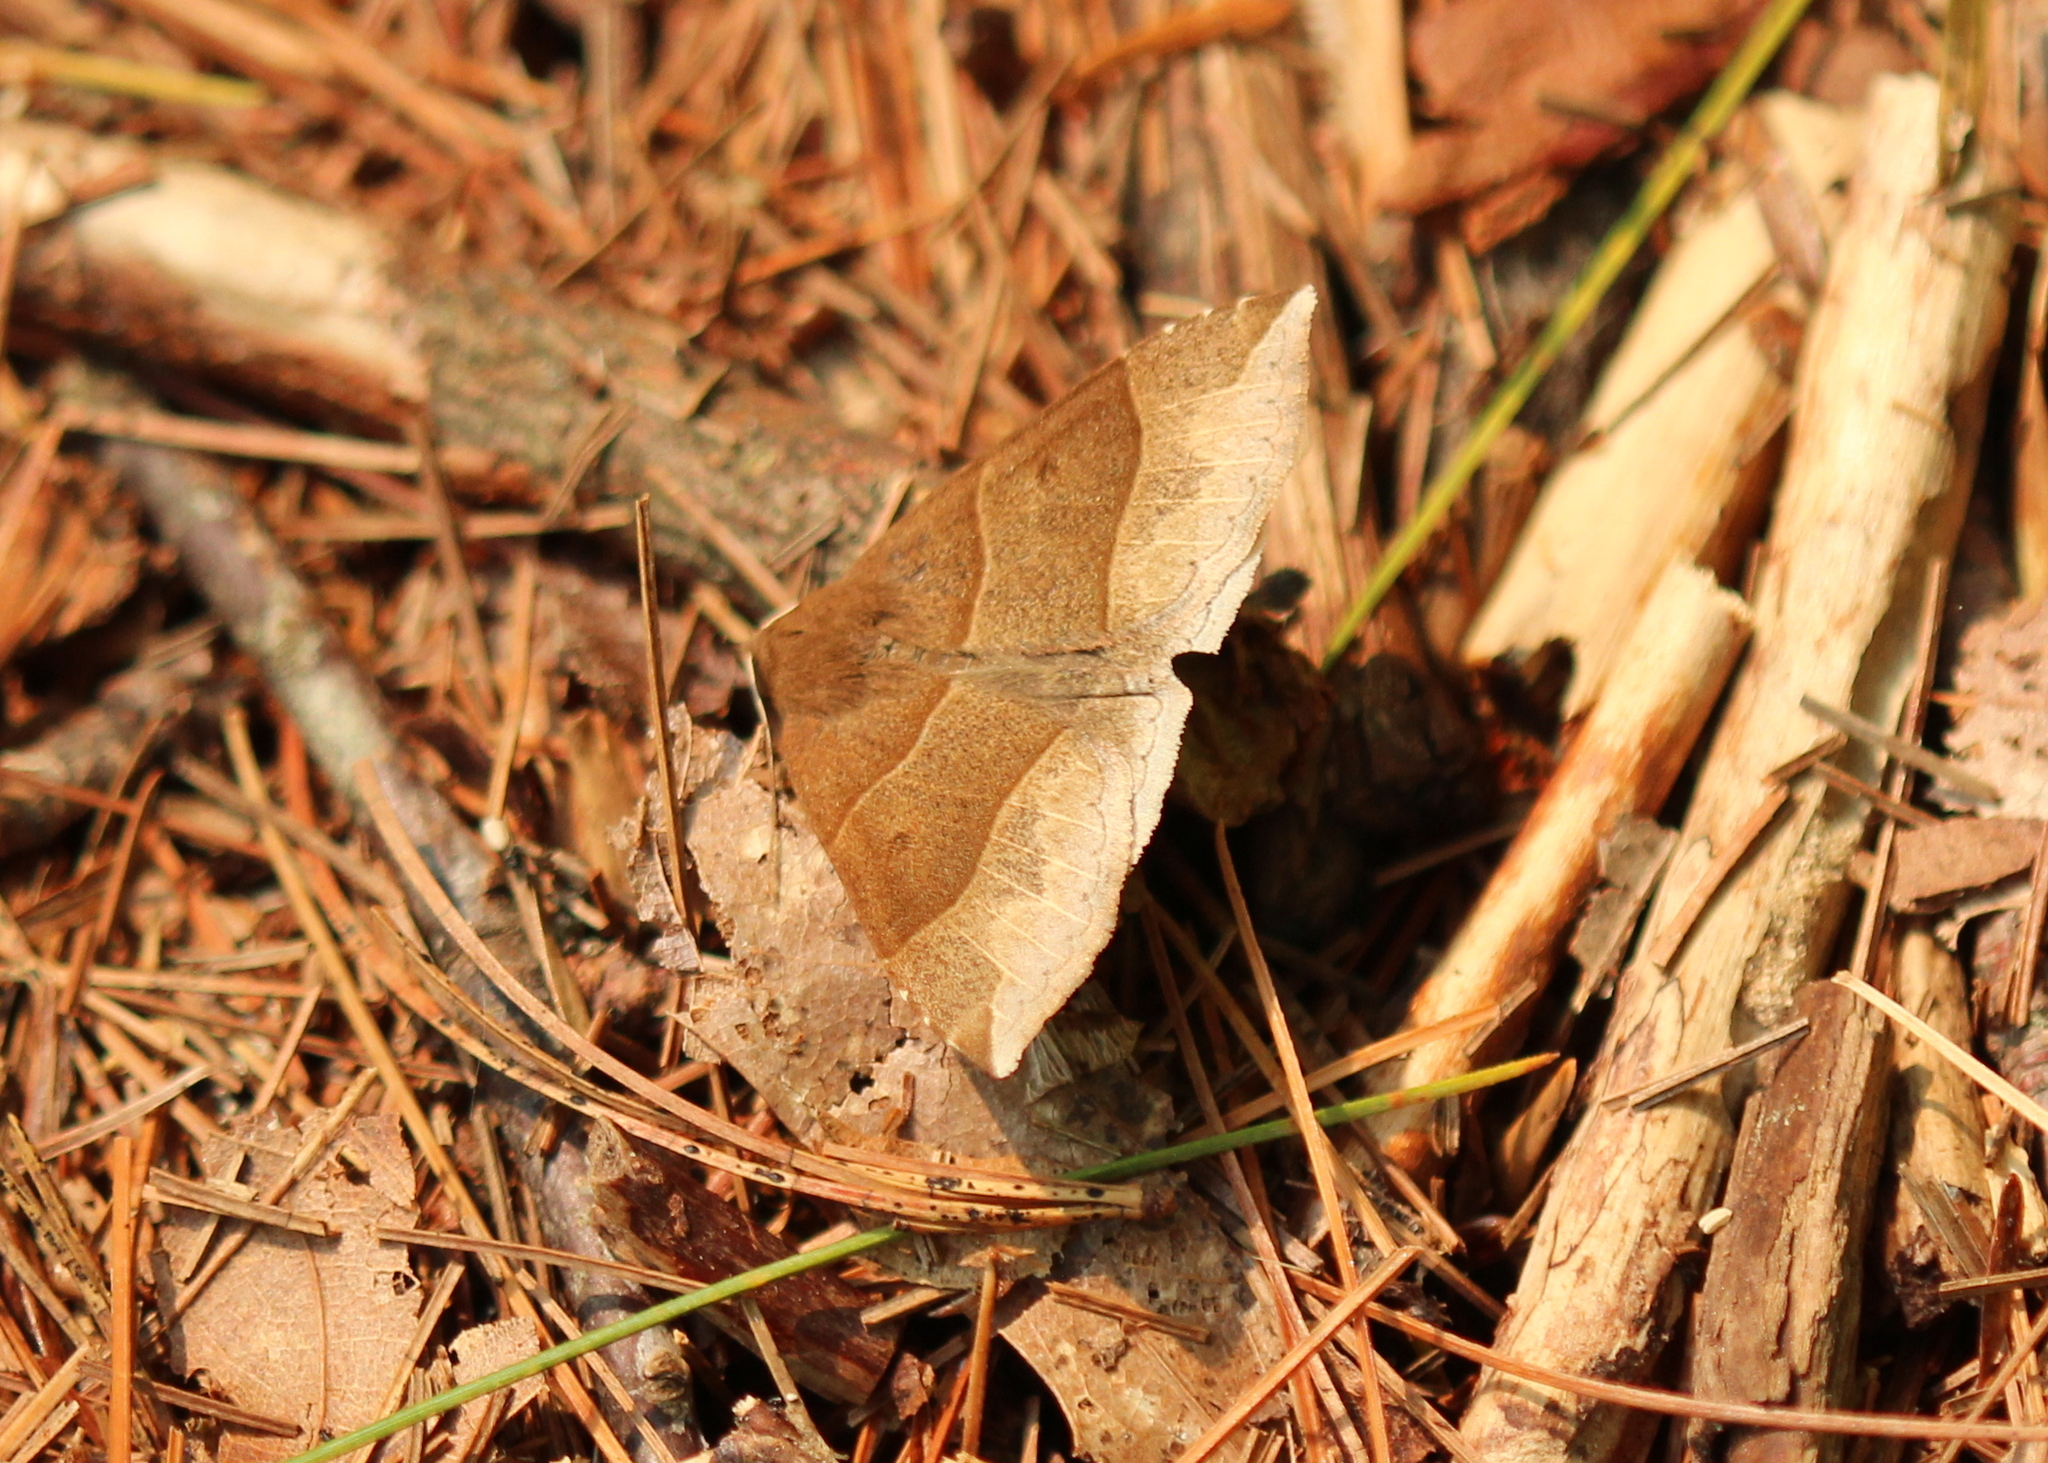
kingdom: Animalia
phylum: Arthropoda
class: Insecta
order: Lepidoptera
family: Erebidae
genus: Parallelia
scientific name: Parallelia bistriaris
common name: Maple looper moth
